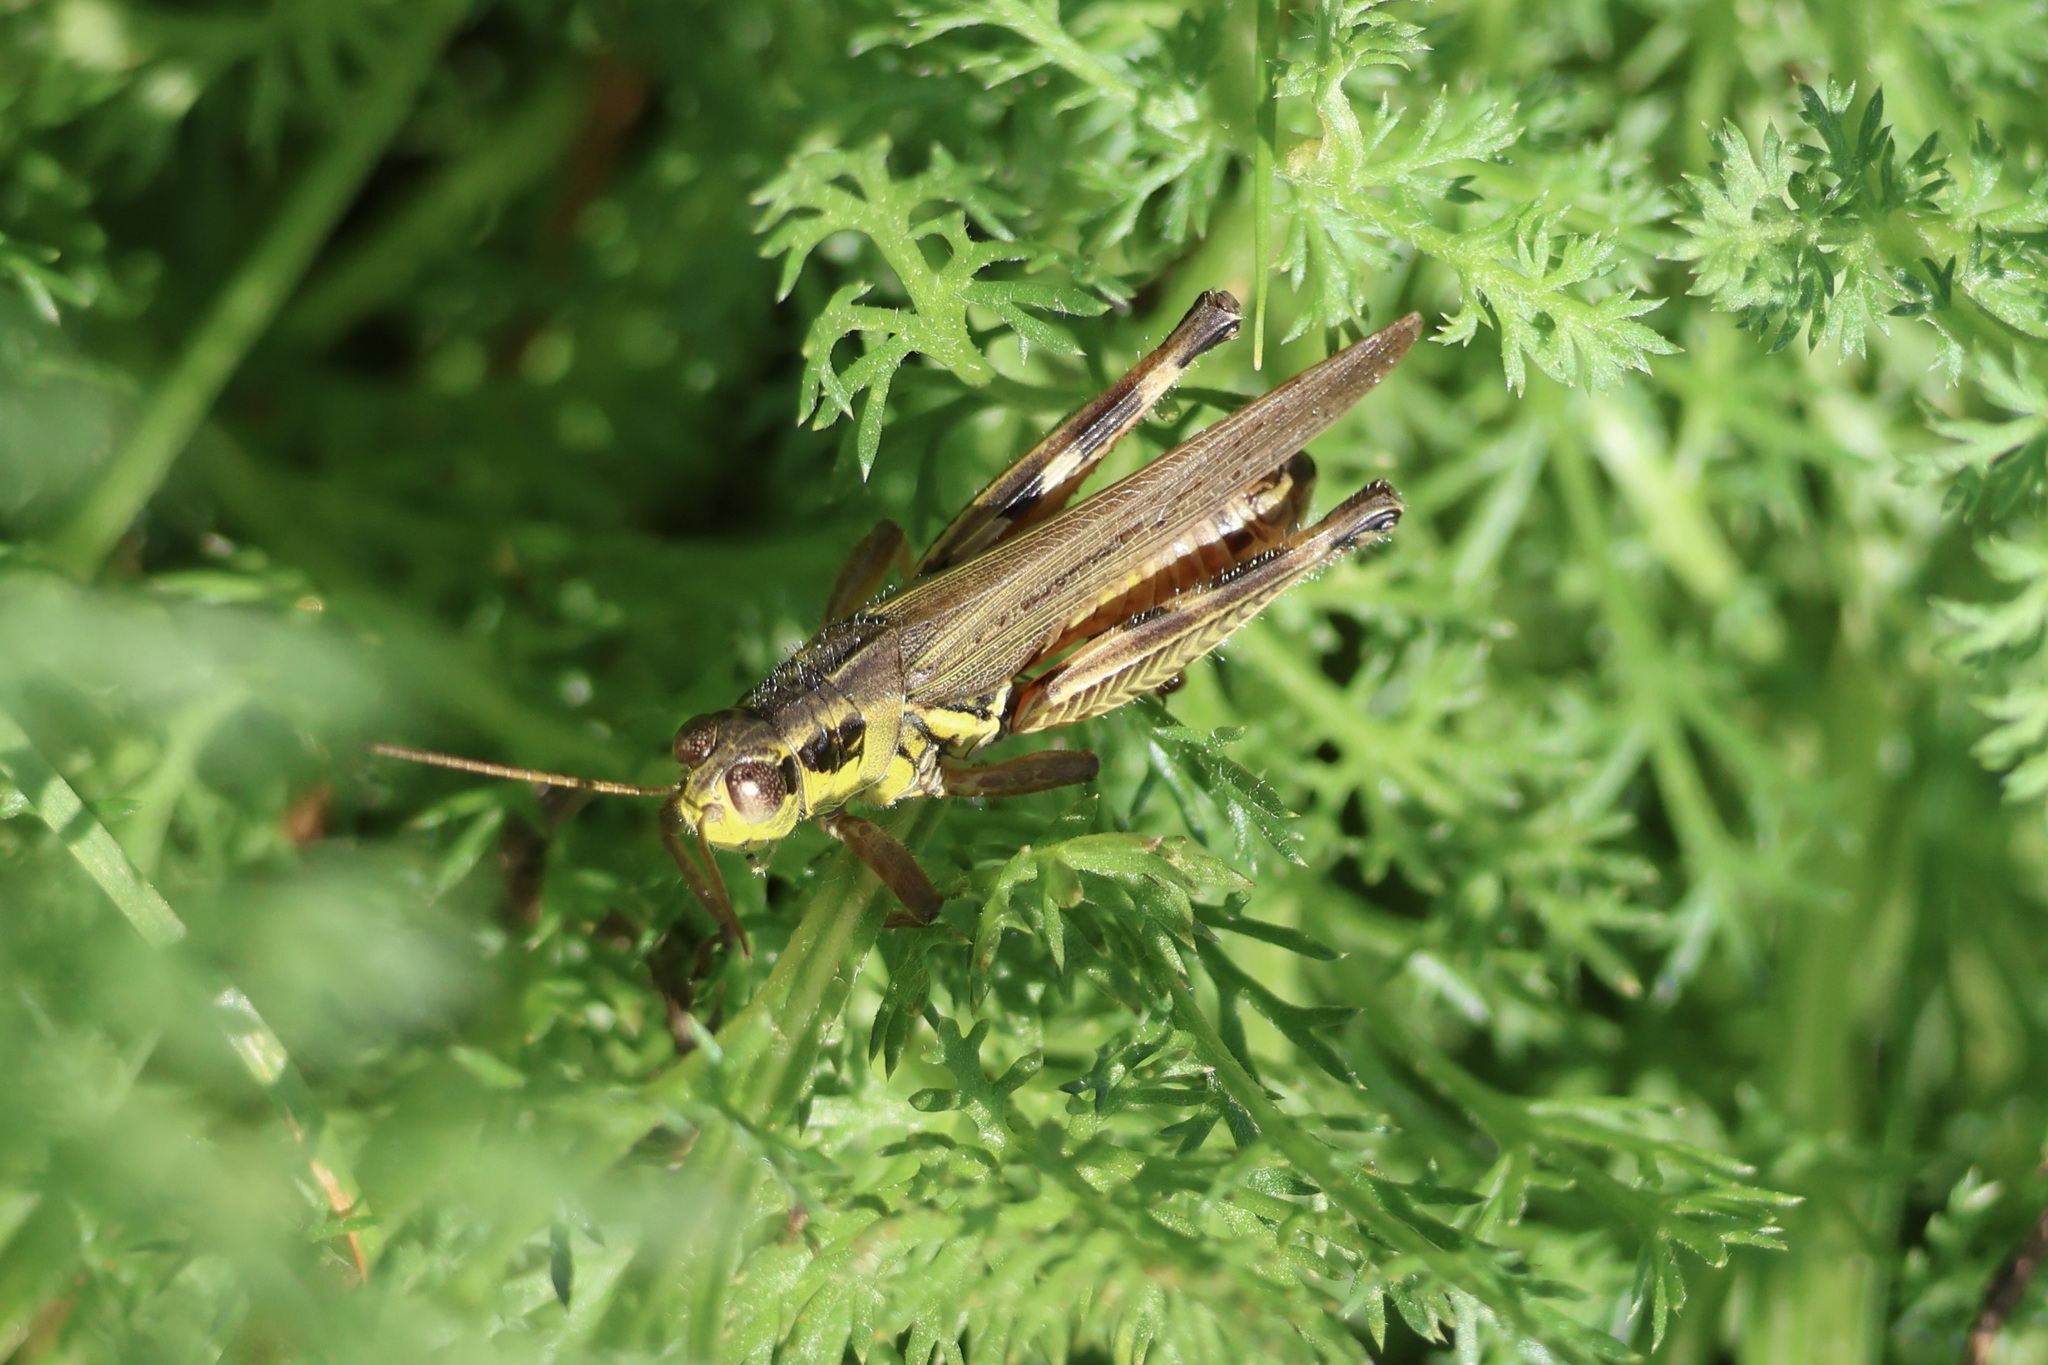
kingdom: Animalia
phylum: Arthropoda
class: Insecta
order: Orthoptera
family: Acrididae
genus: Melanoplus
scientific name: Melanoplus femurrubrum
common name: Red-legged grasshopper
